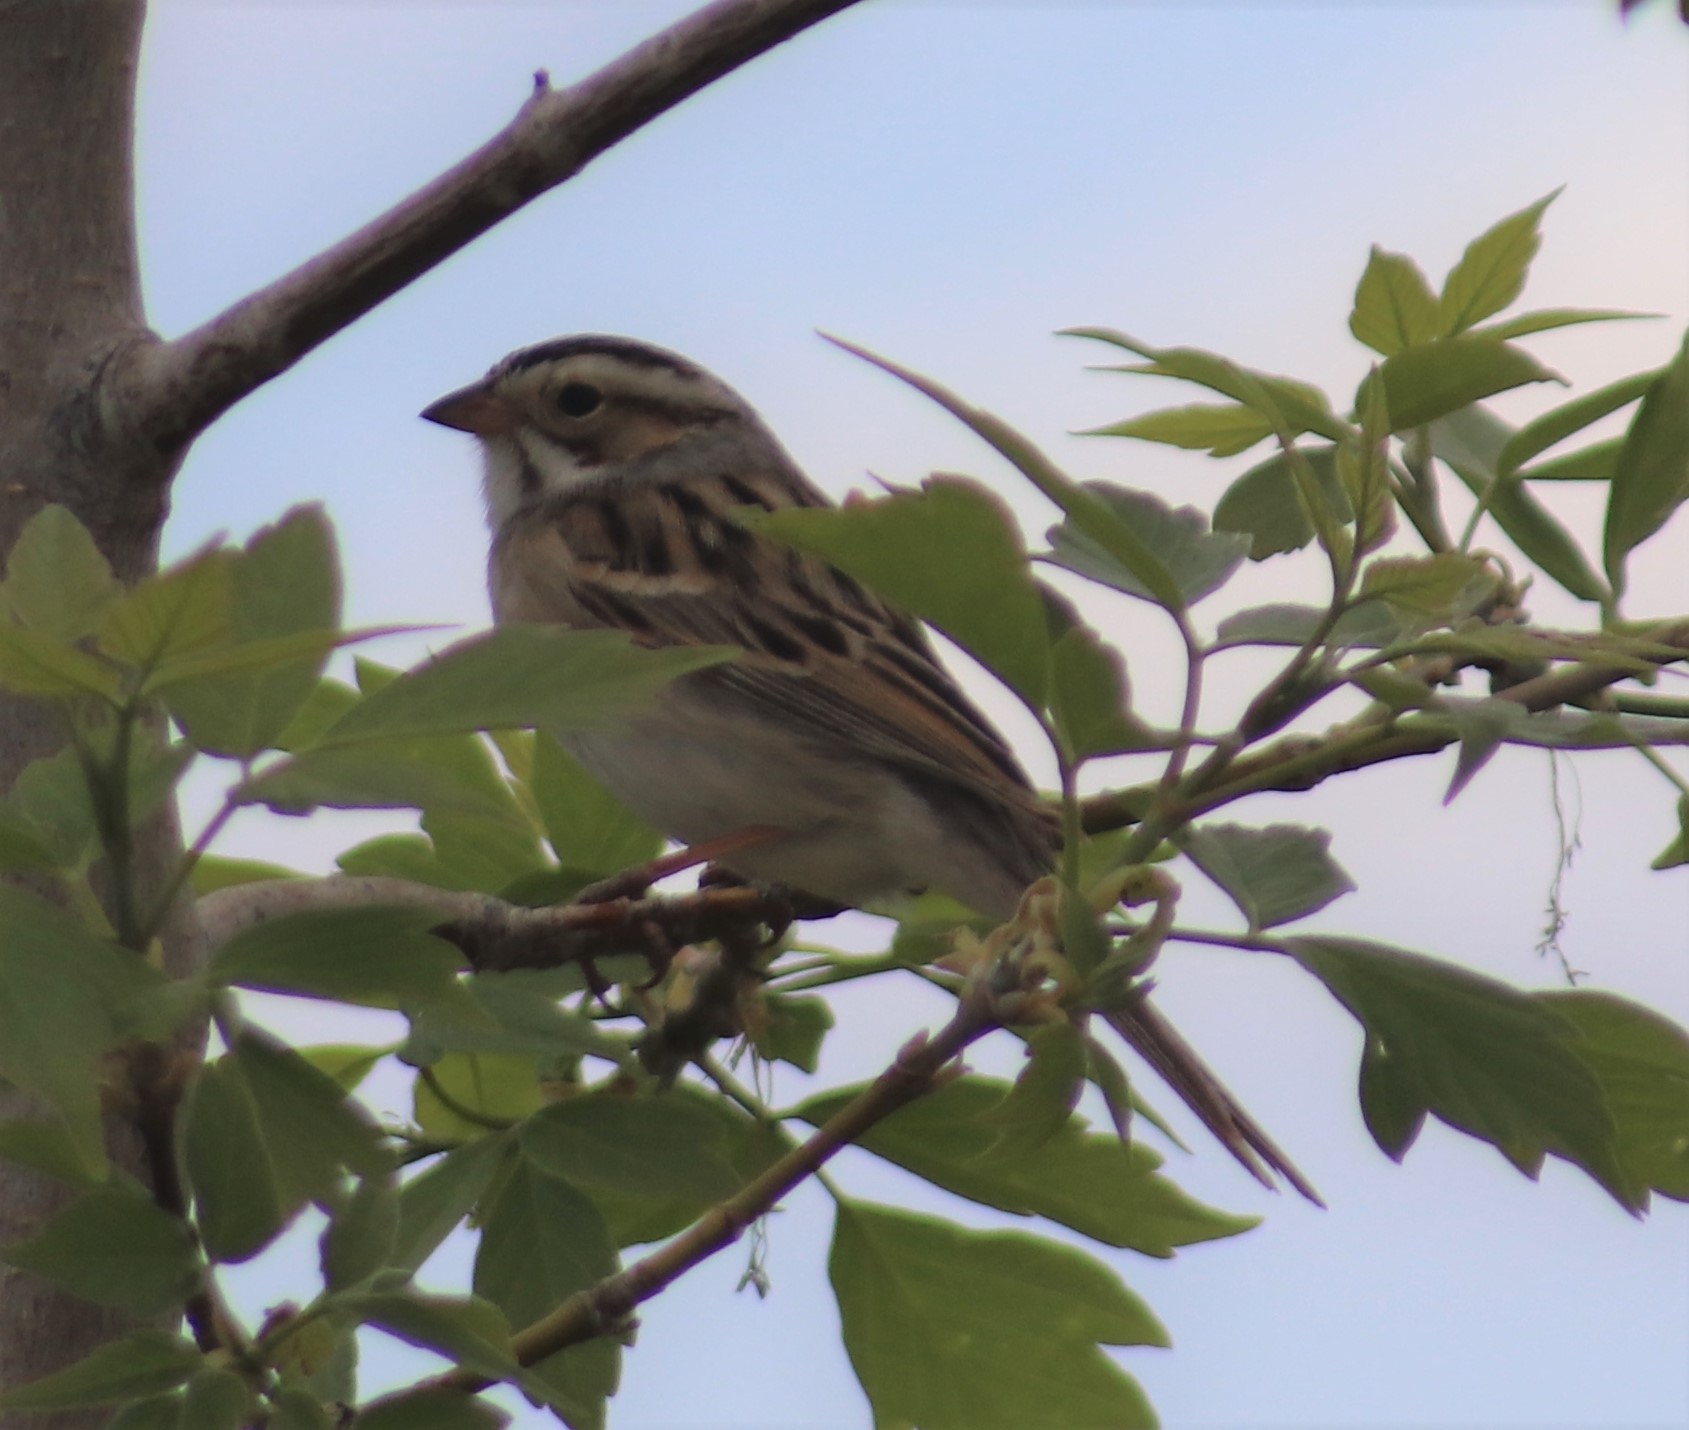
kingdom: Animalia
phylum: Chordata
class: Aves
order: Passeriformes
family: Passerellidae
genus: Spizella
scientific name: Spizella pallida
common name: Clay-colored sparrow
